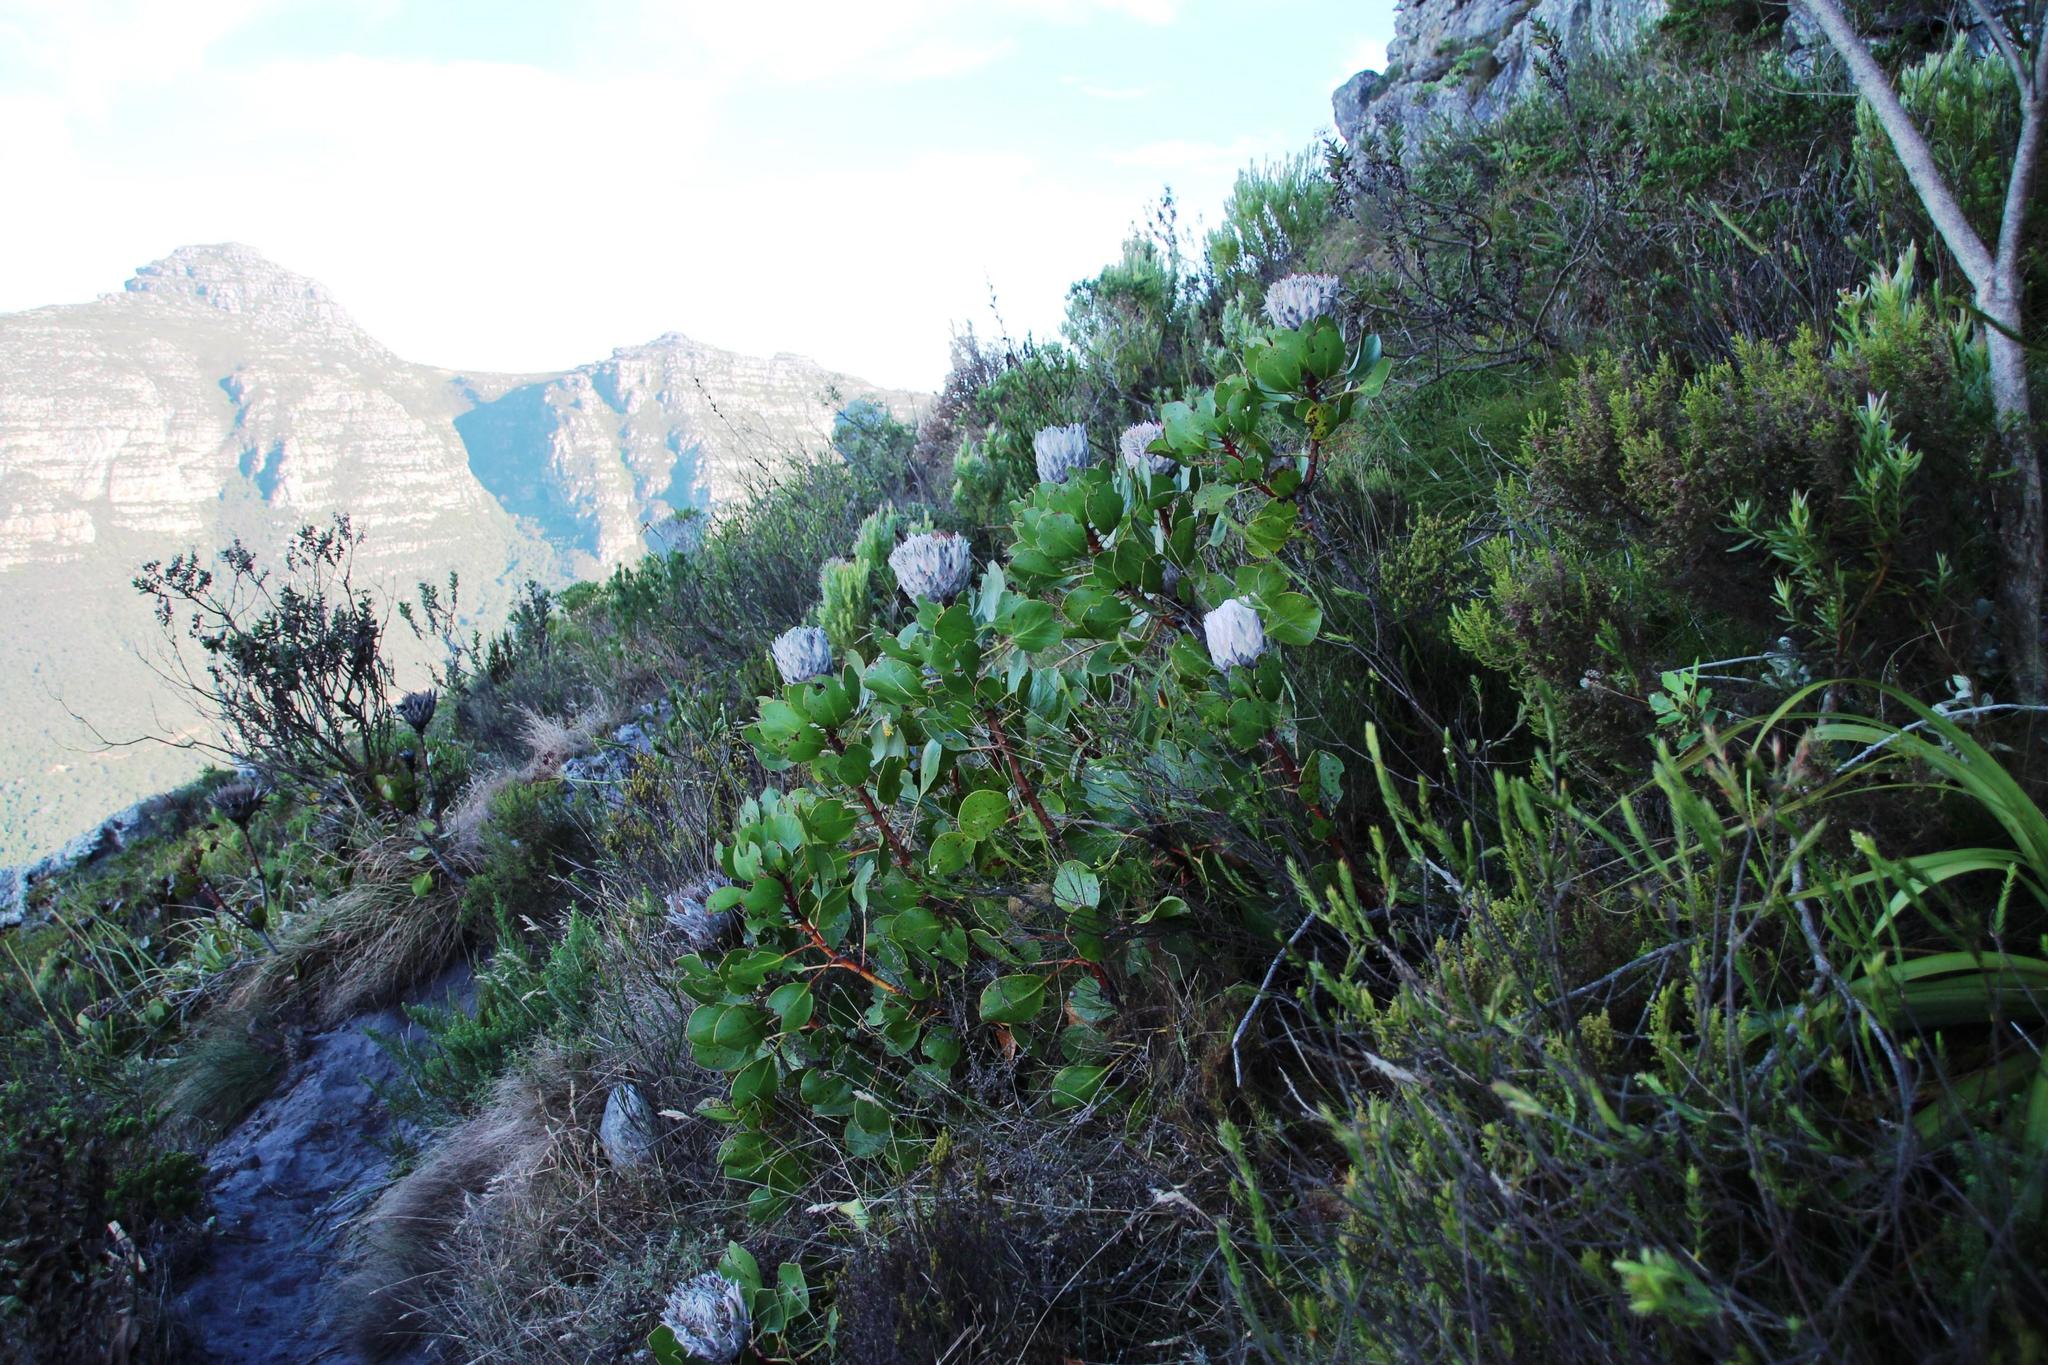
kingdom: Plantae
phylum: Tracheophyta
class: Magnoliopsida
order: Proteales
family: Proteaceae
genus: Protea
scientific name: Protea cynaroides
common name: King protea
